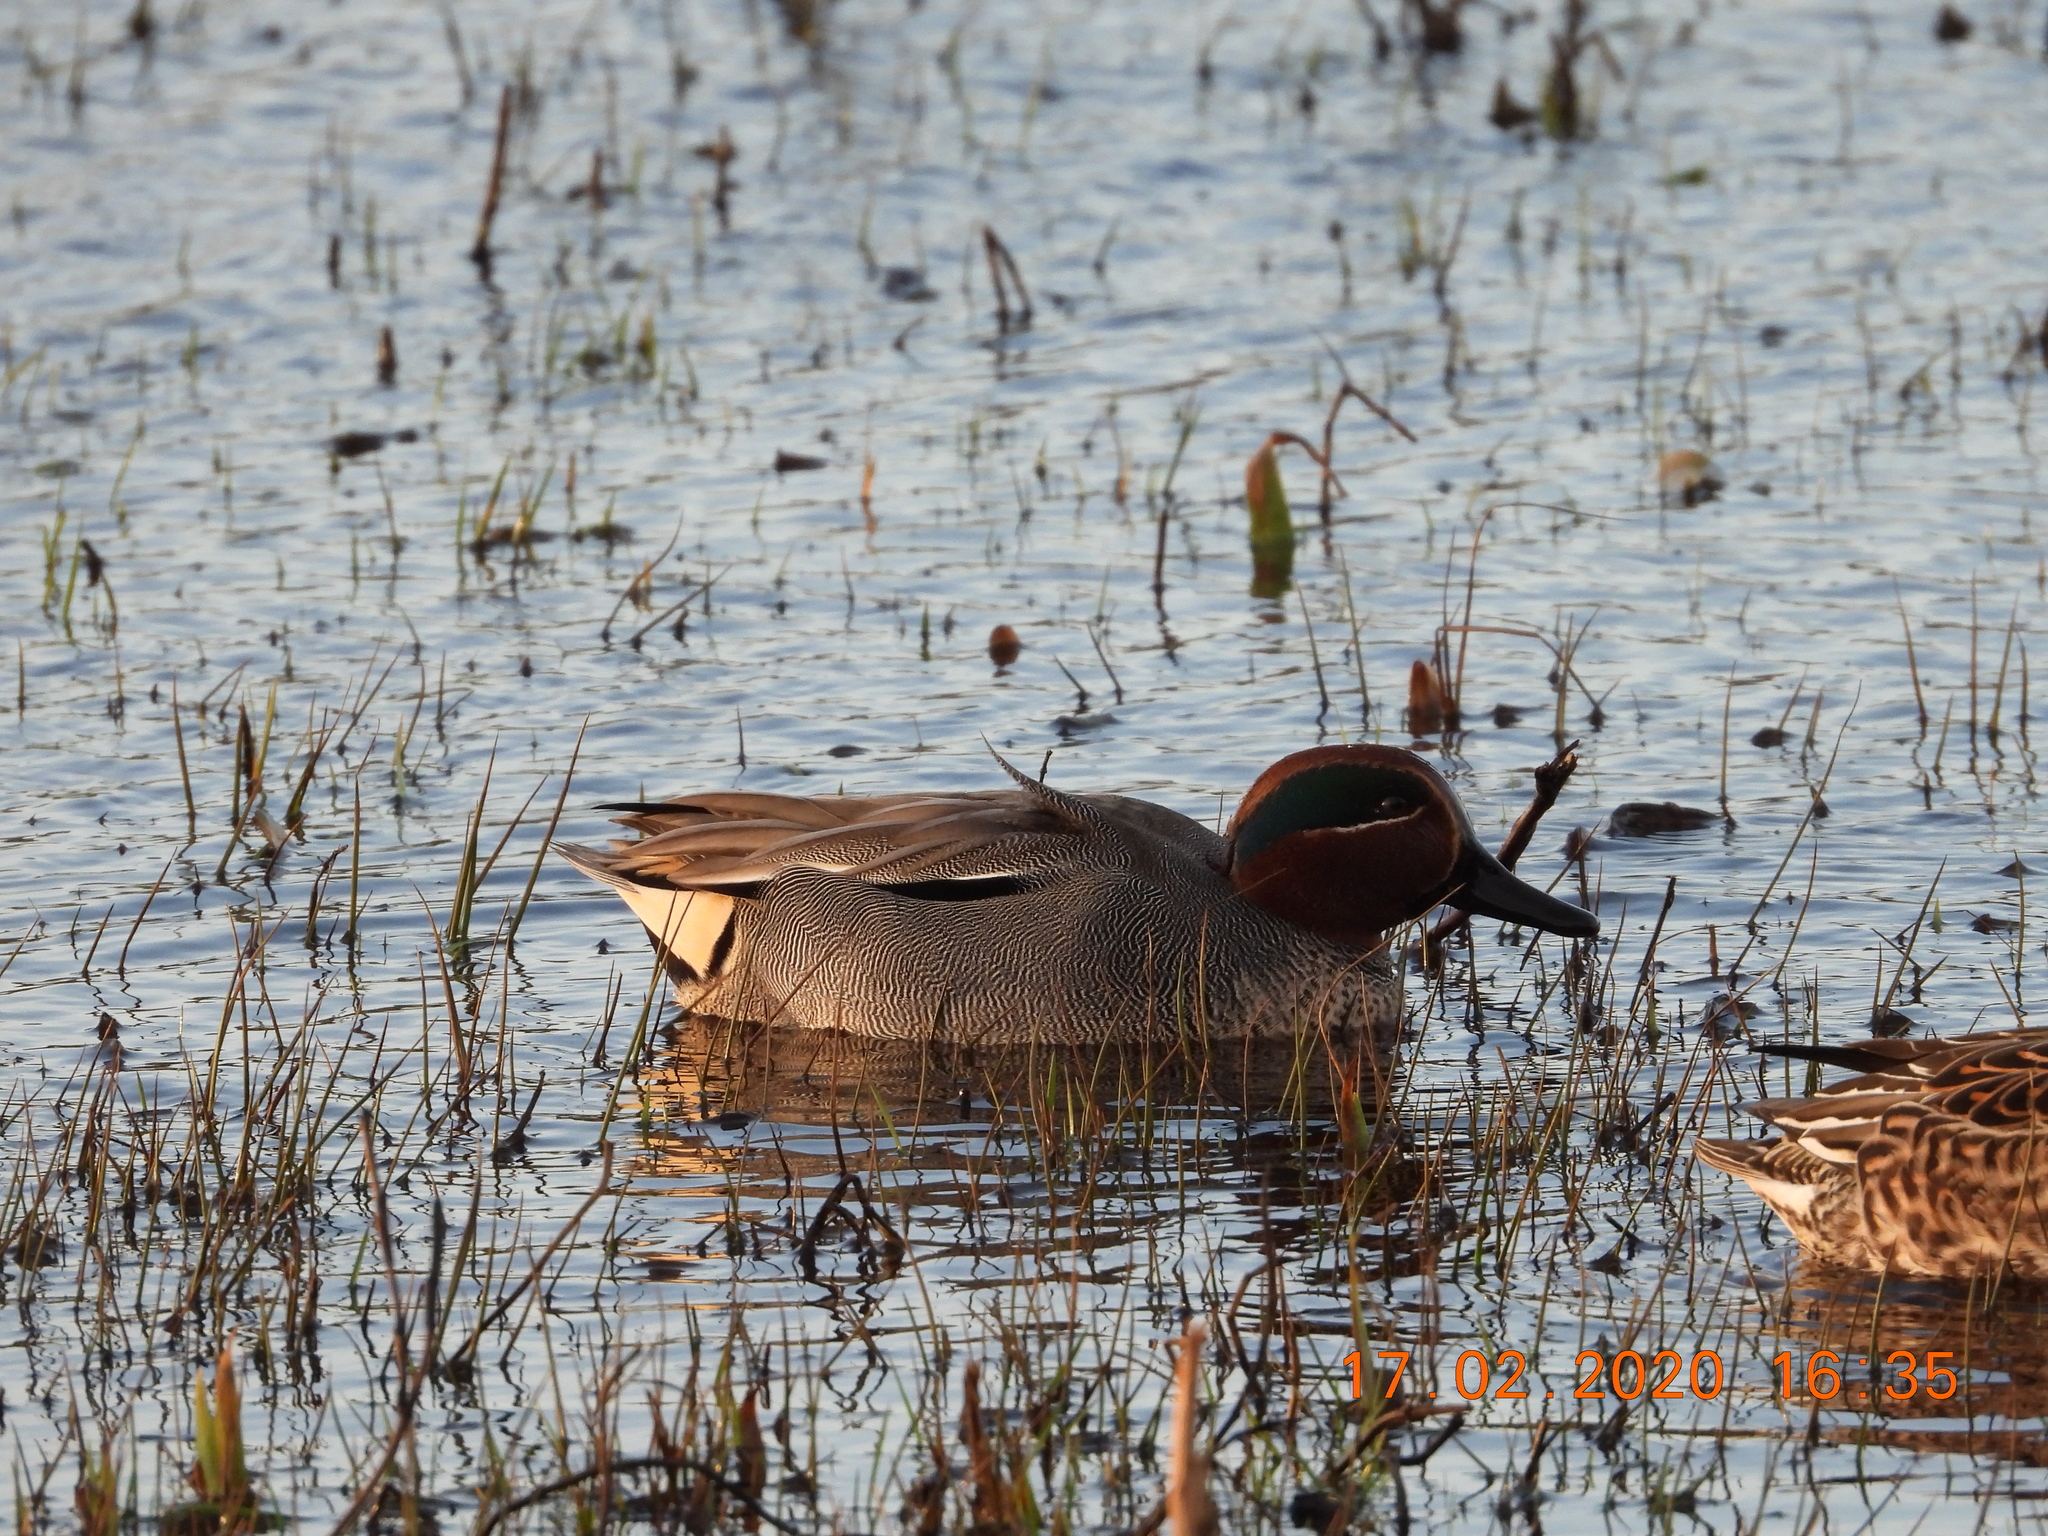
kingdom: Animalia
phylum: Chordata
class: Aves
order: Anseriformes
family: Anatidae
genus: Anas
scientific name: Anas crecca
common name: Eurasian teal
